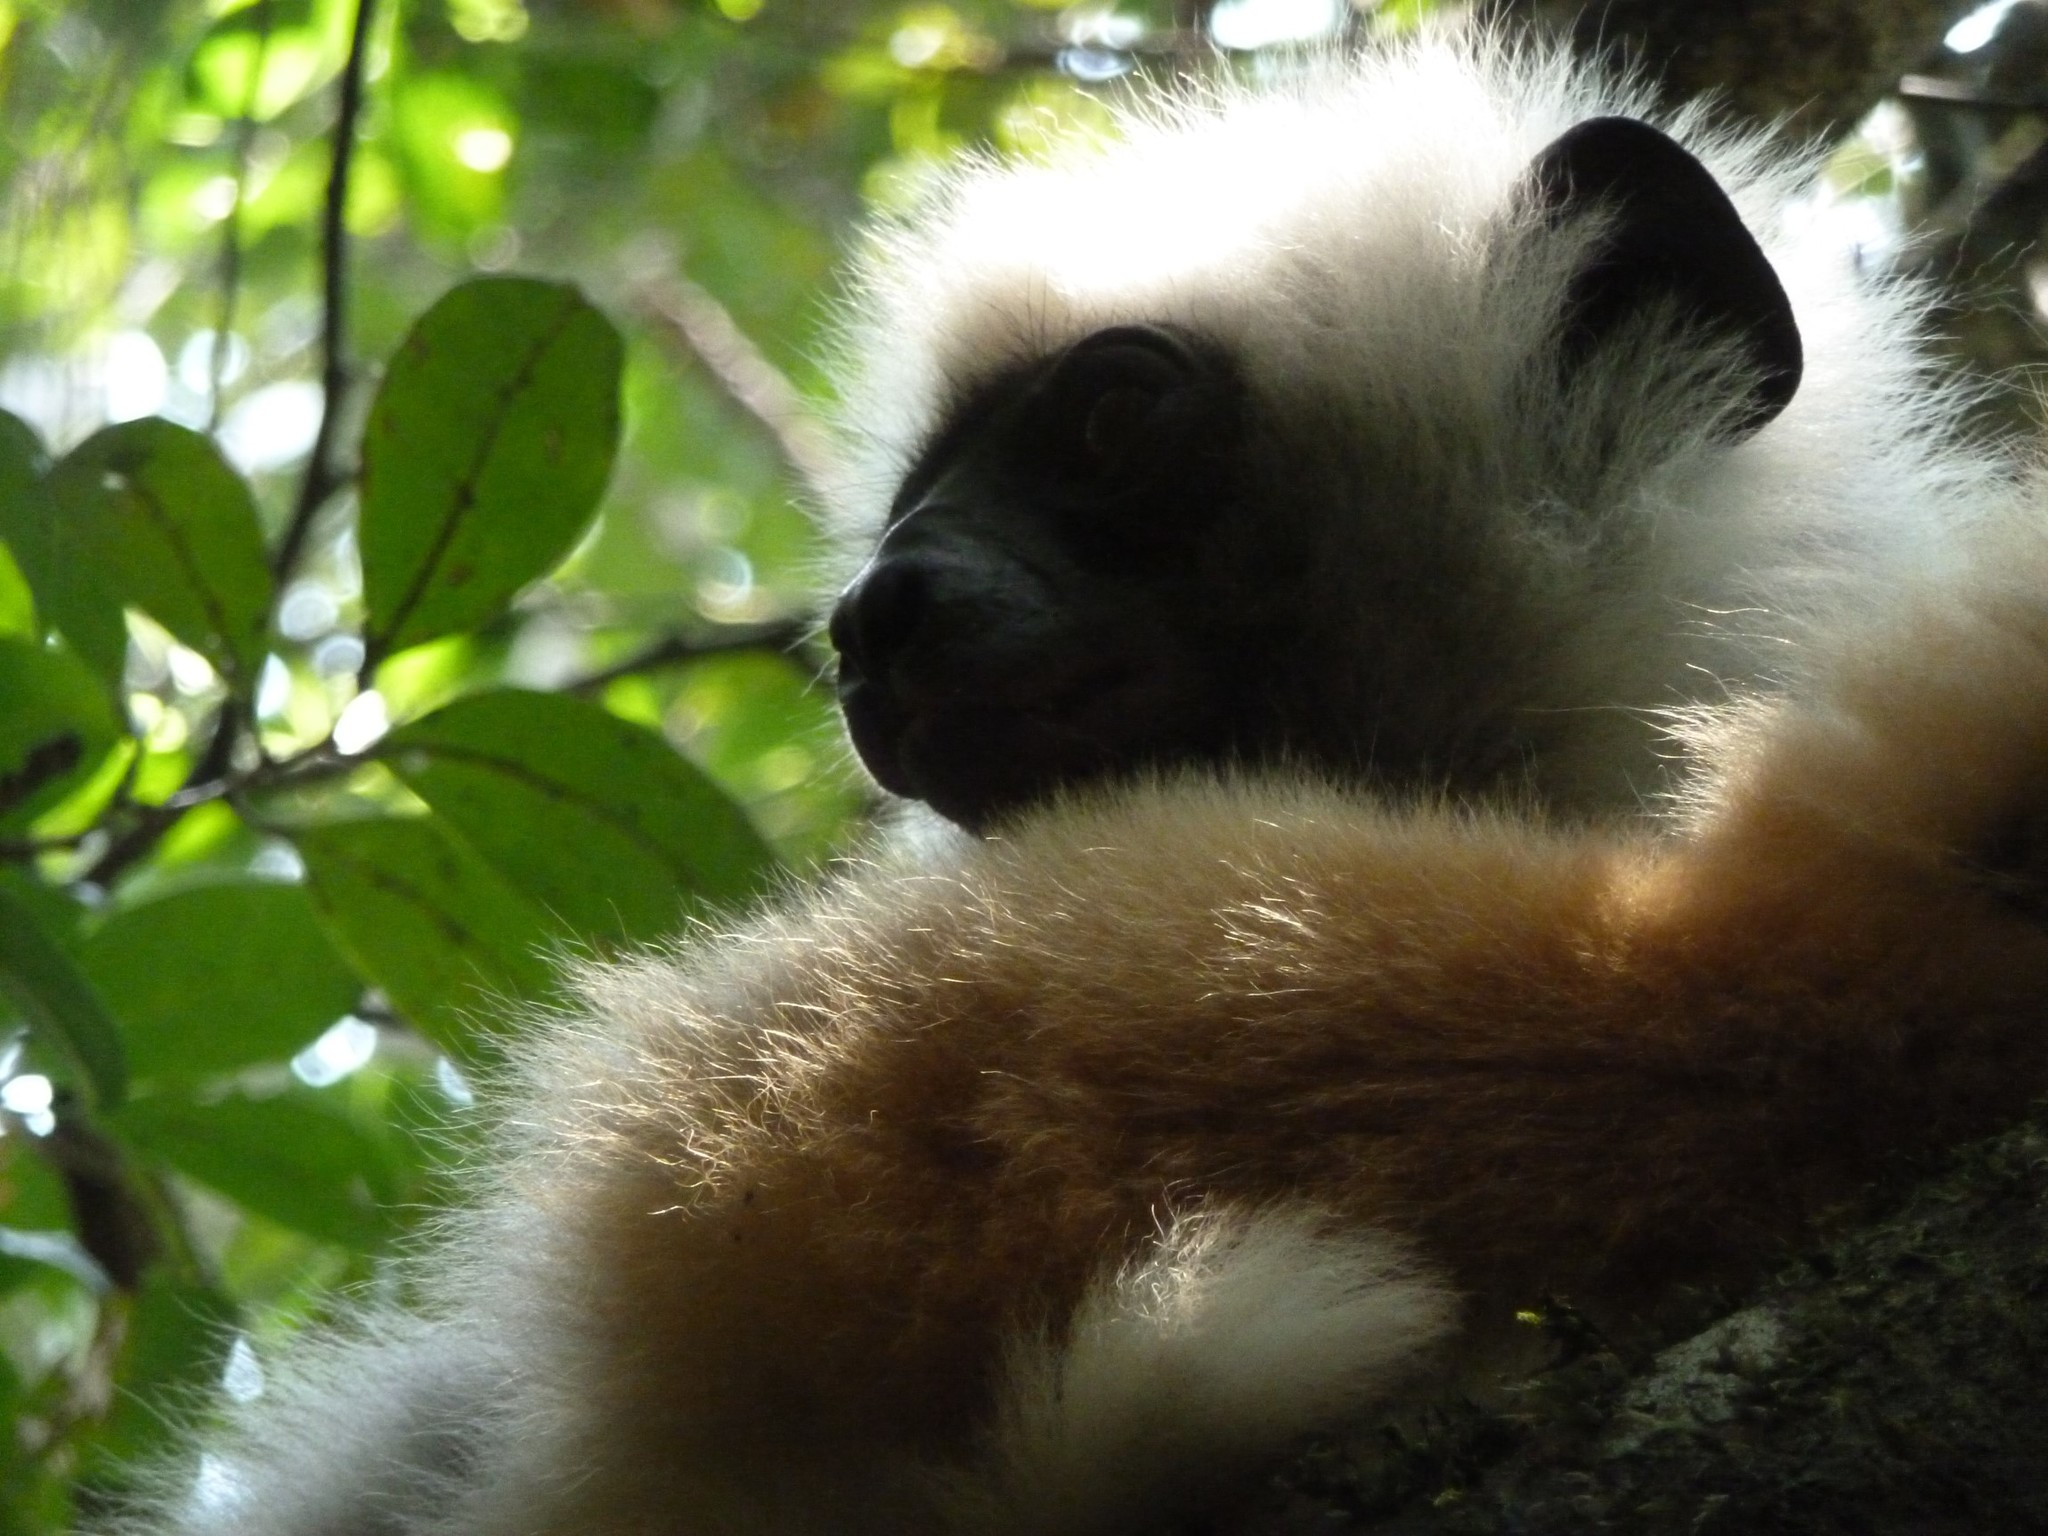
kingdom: Animalia
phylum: Chordata
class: Mammalia
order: Primates
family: Indriidae
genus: Propithecus
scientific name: Propithecus diadema
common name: Diademed sifaka
